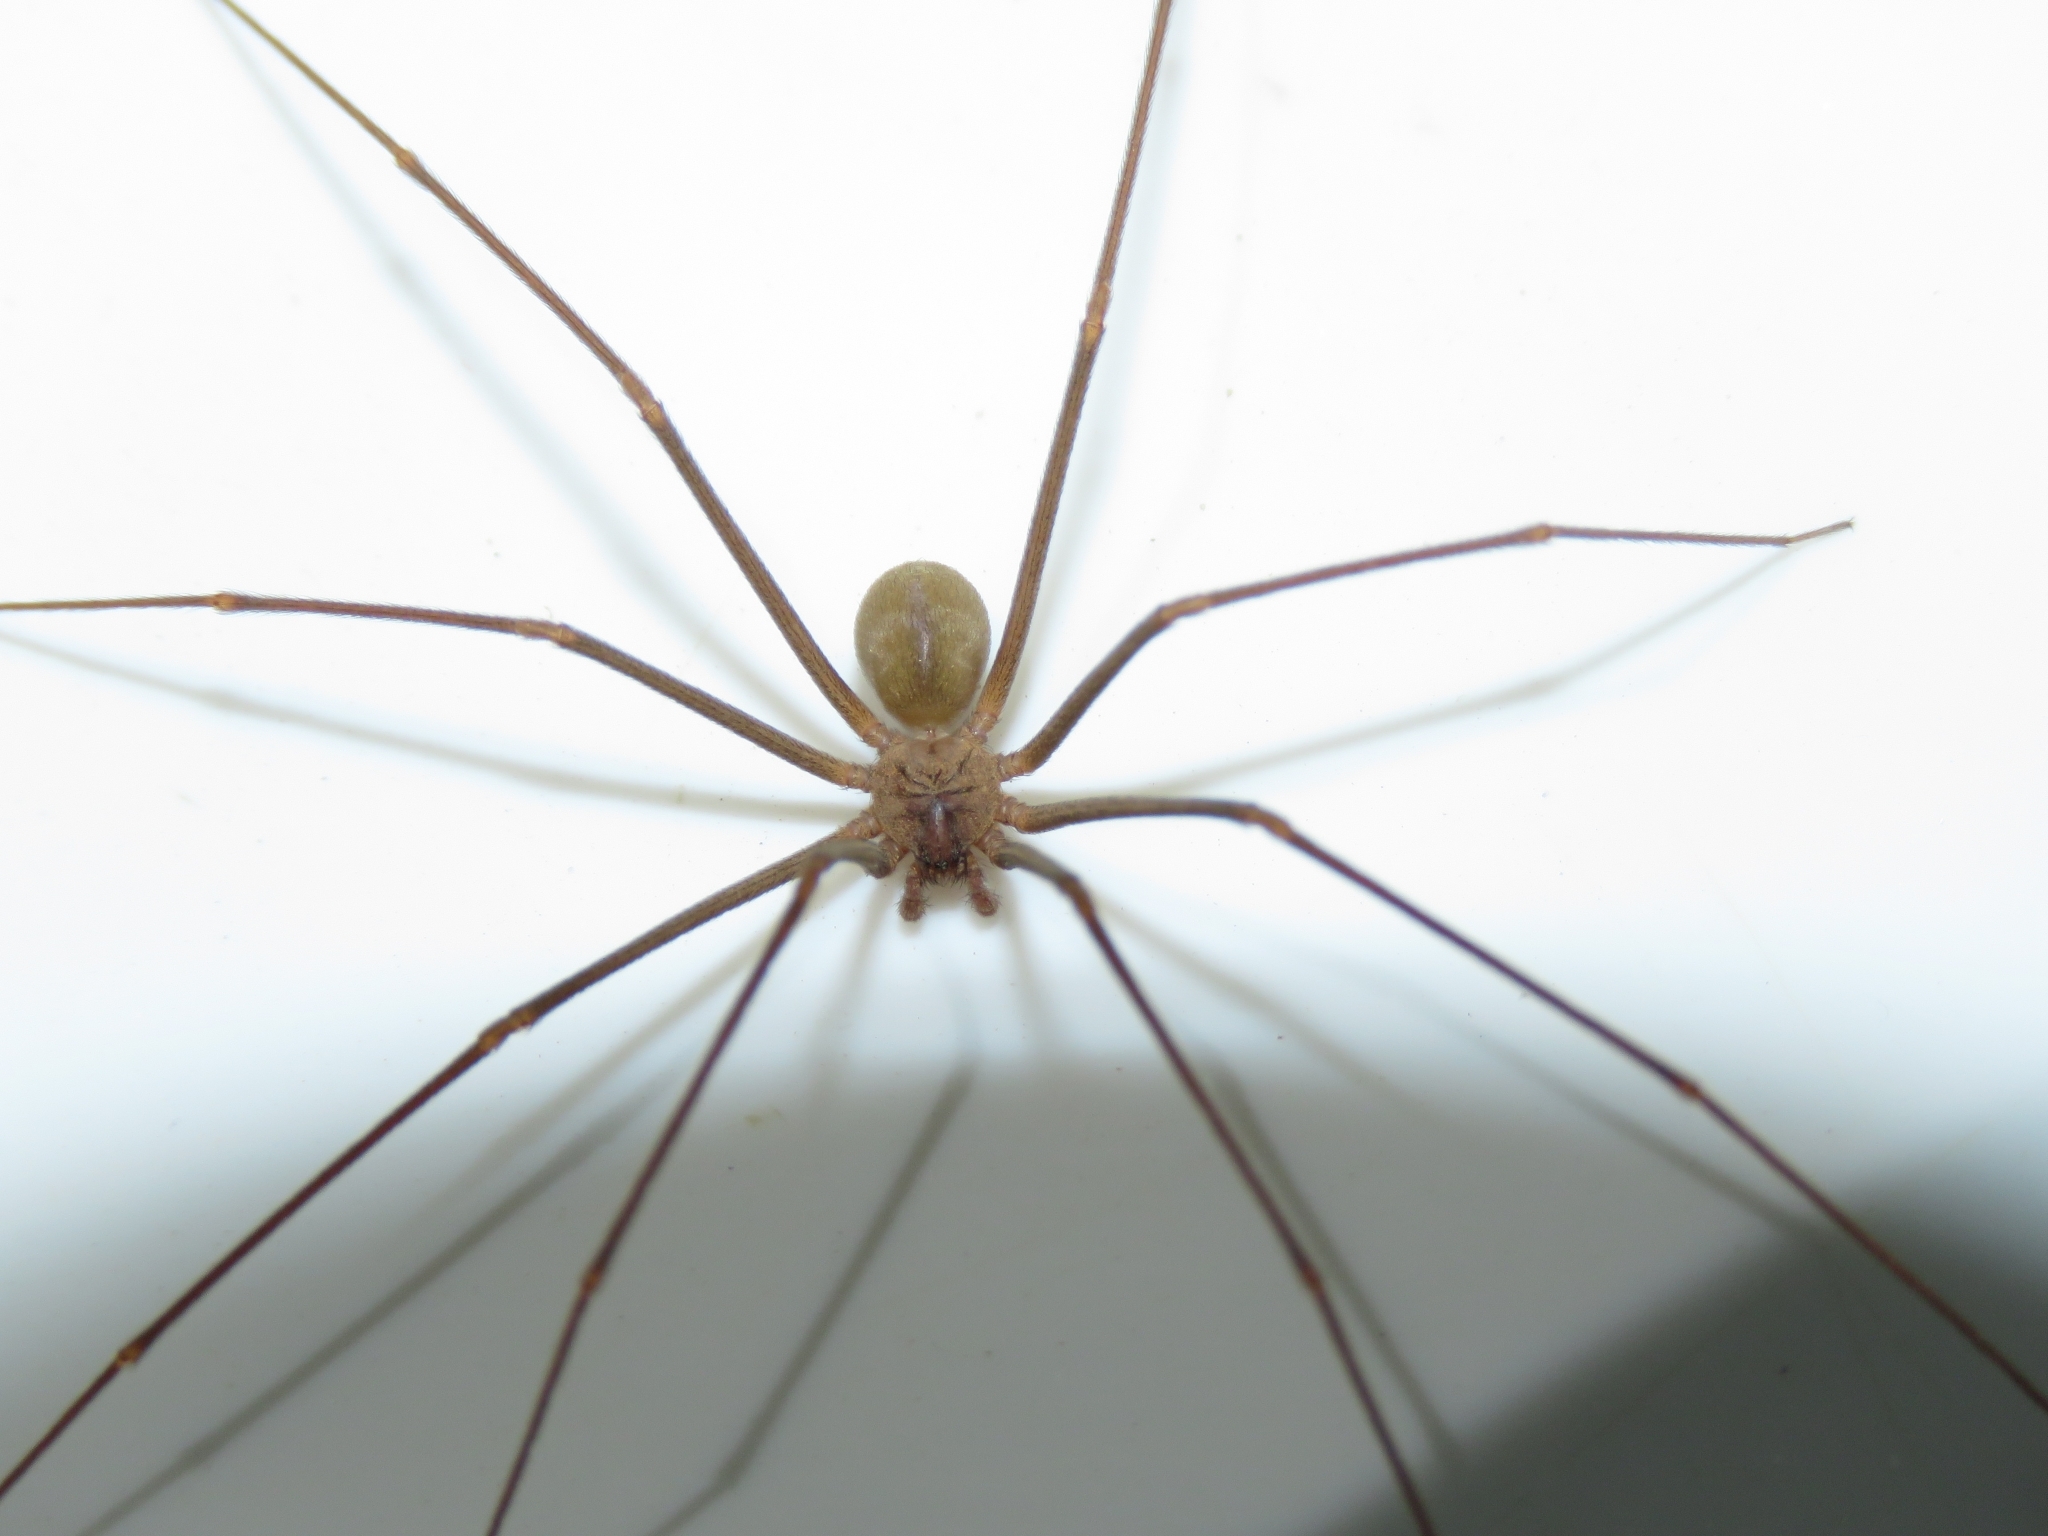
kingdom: Animalia
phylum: Arthropoda
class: Arachnida
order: Araneae
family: Sicariidae
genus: Loxosceles
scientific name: Loxosceles spinulosa
